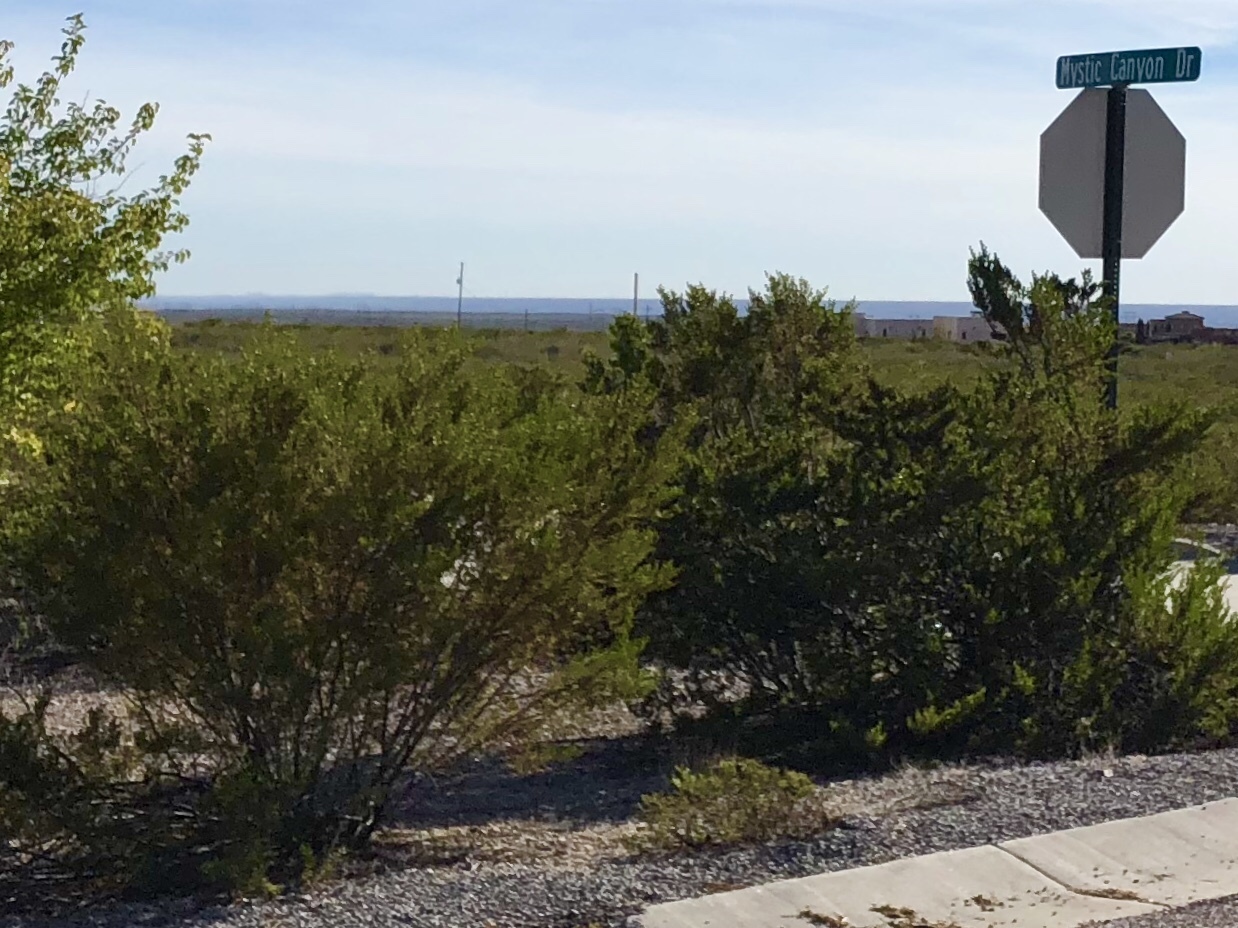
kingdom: Plantae
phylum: Tracheophyta
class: Magnoliopsida
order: Zygophyllales
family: Zygophyllaceae
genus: Larrea
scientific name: Larrea tridentata
